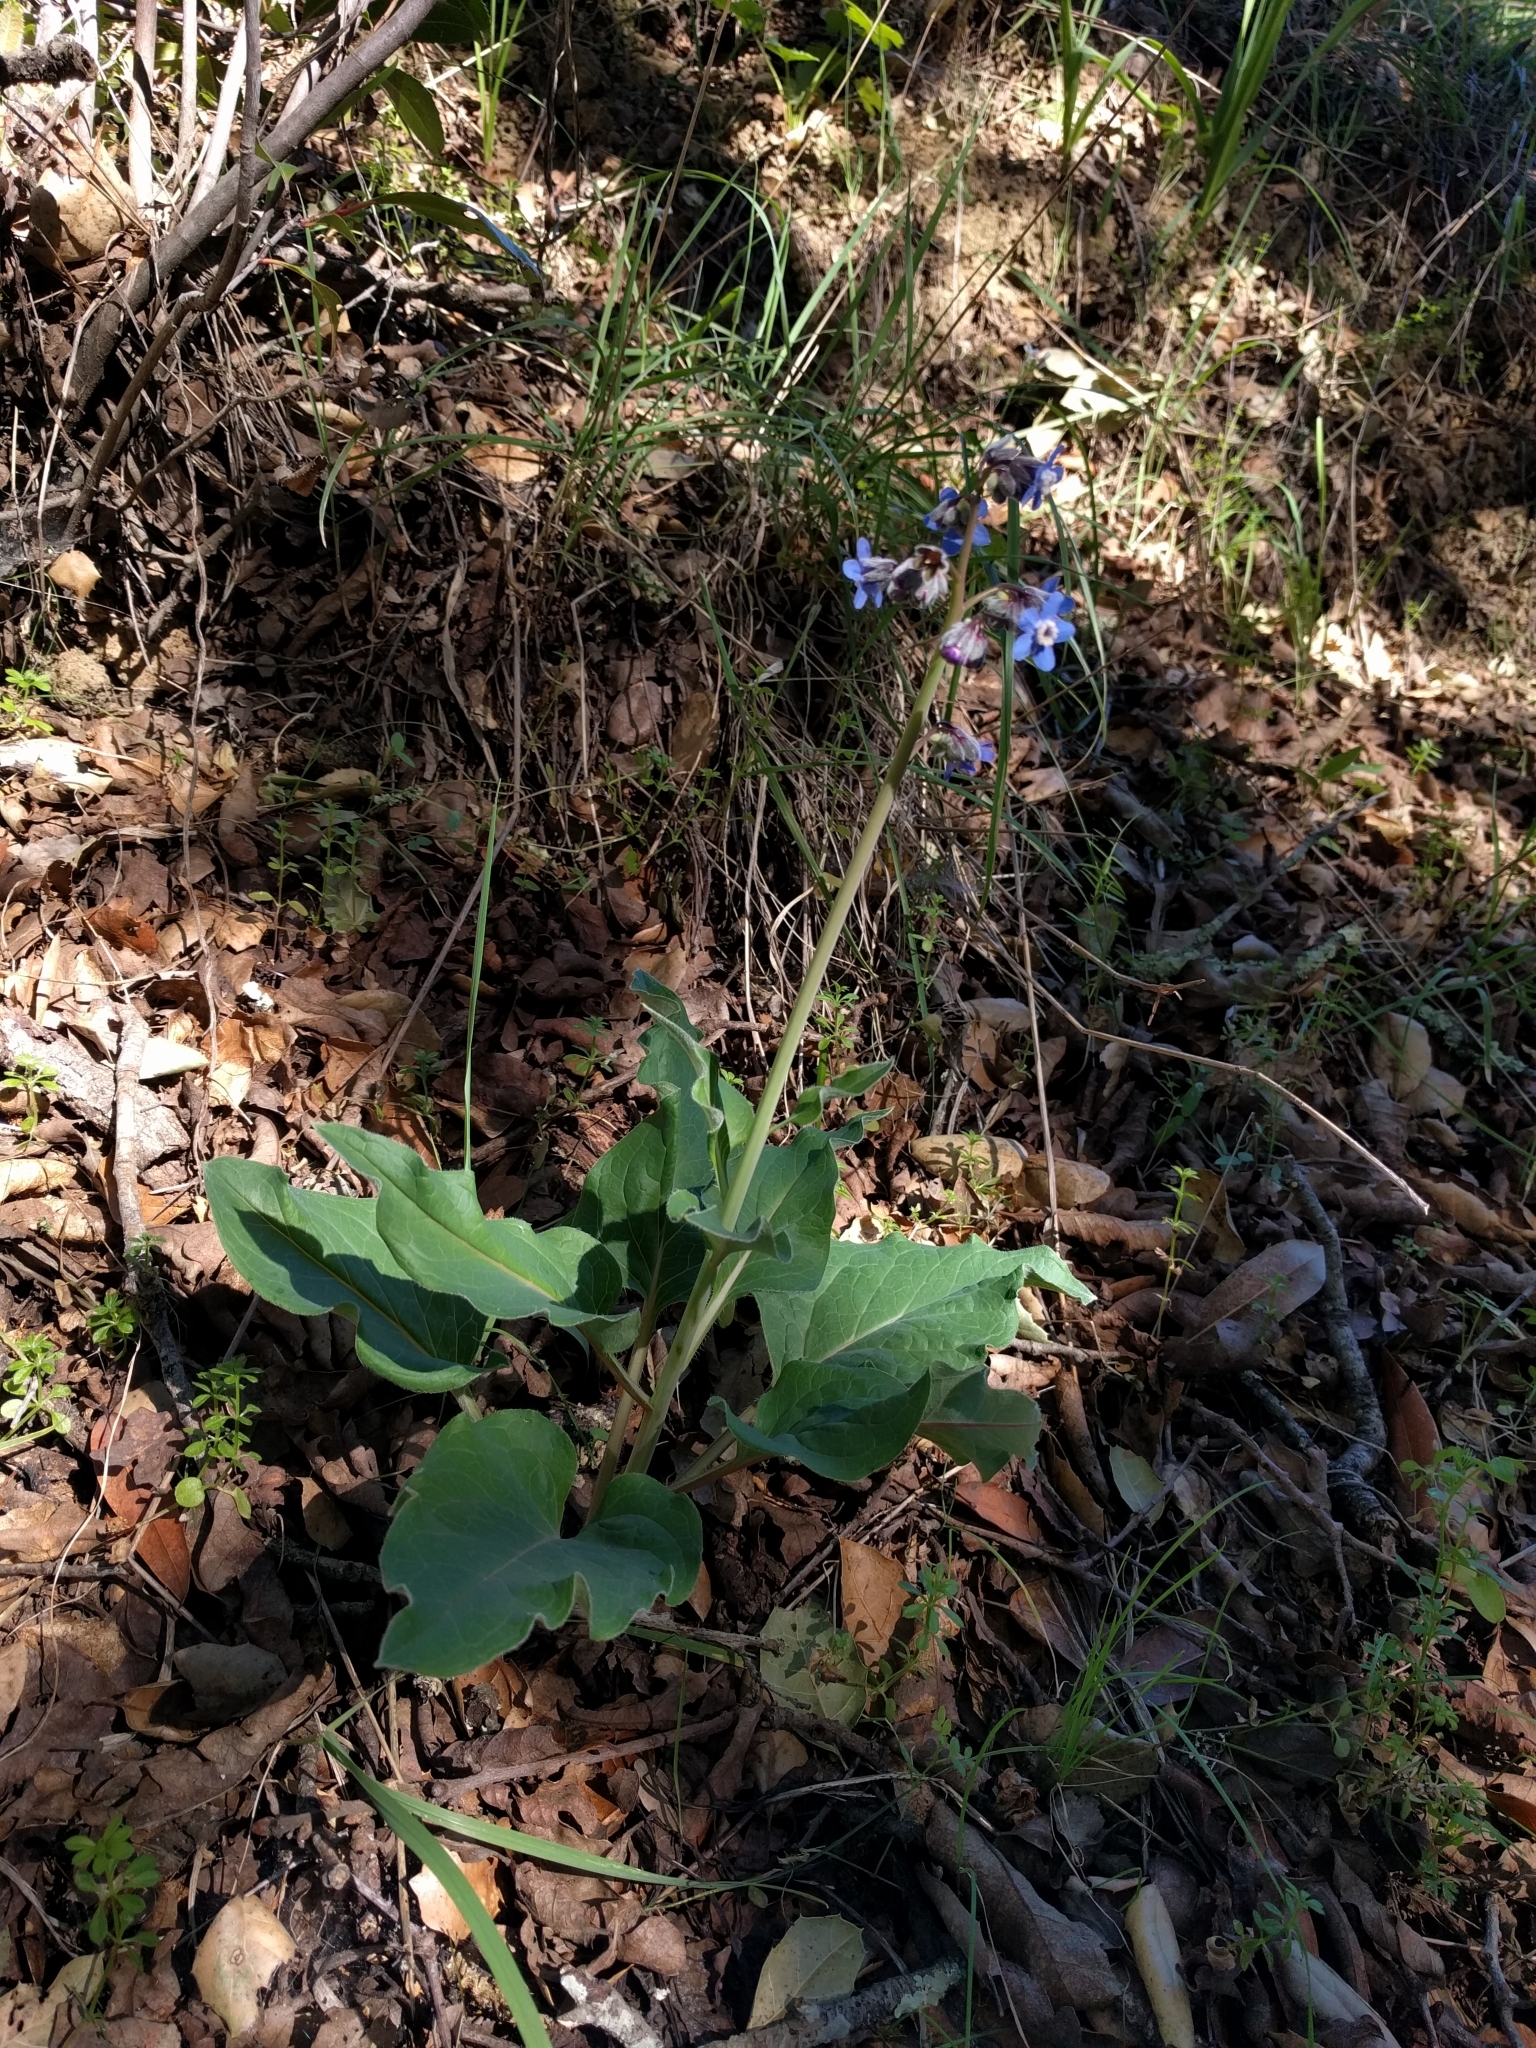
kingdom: Plantae
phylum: Tracheophyta
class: Magnoliopsida
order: Boraginales
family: Boraginaceae
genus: Adelinia
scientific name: Adelinia grande
